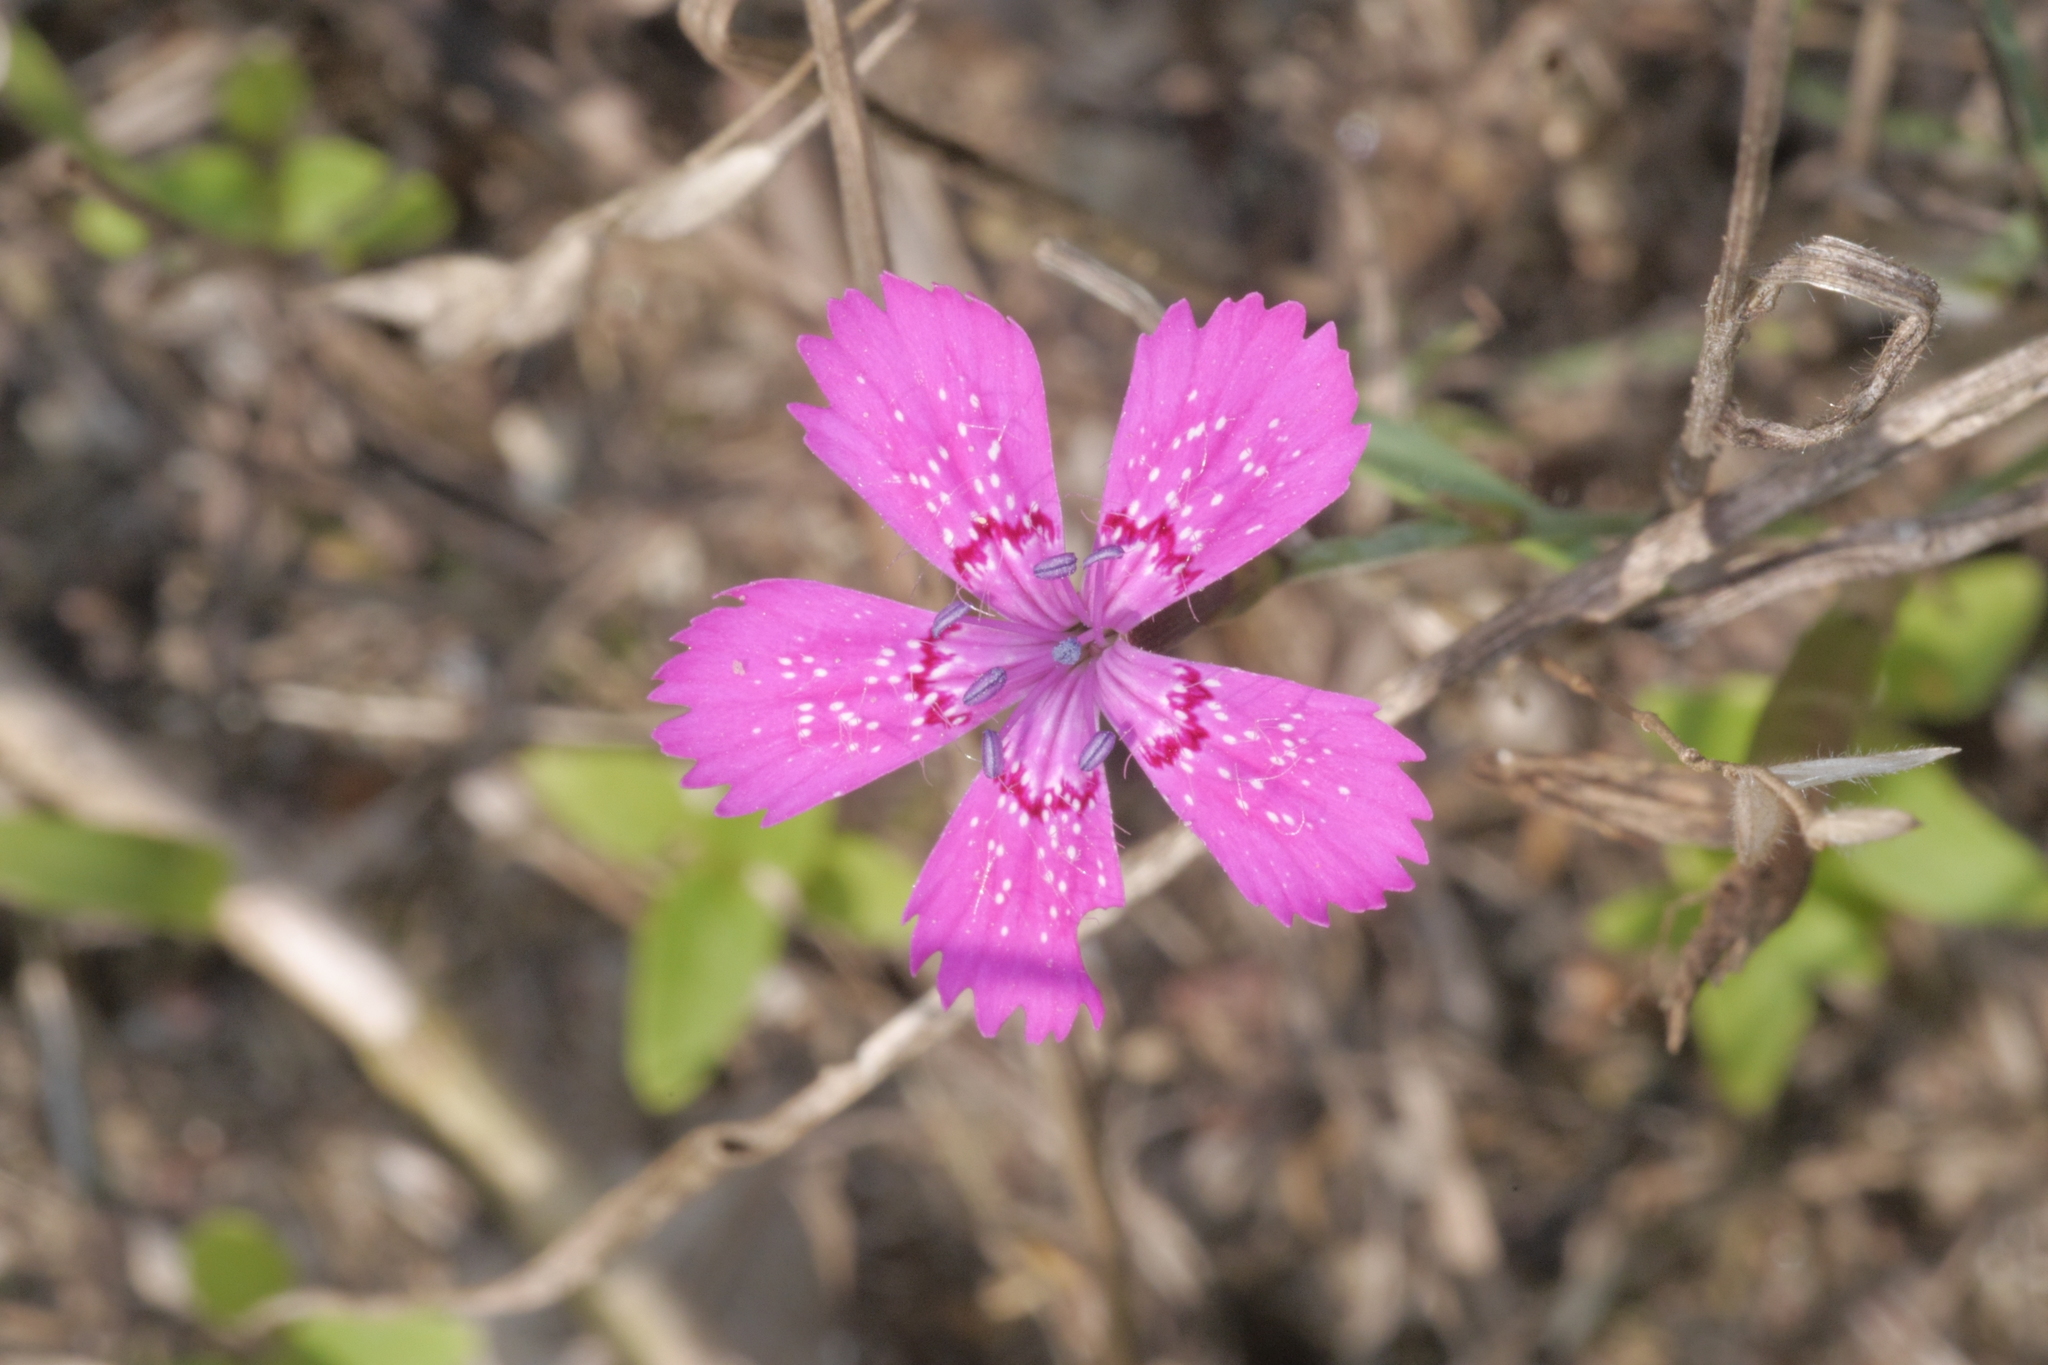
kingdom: Plantae
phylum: Tracheophyta
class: Magnoliopsida
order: Caryophyllales
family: Caryophyllaceae
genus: Dianthus
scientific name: Dianthus deltoides
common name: Maiden pink
